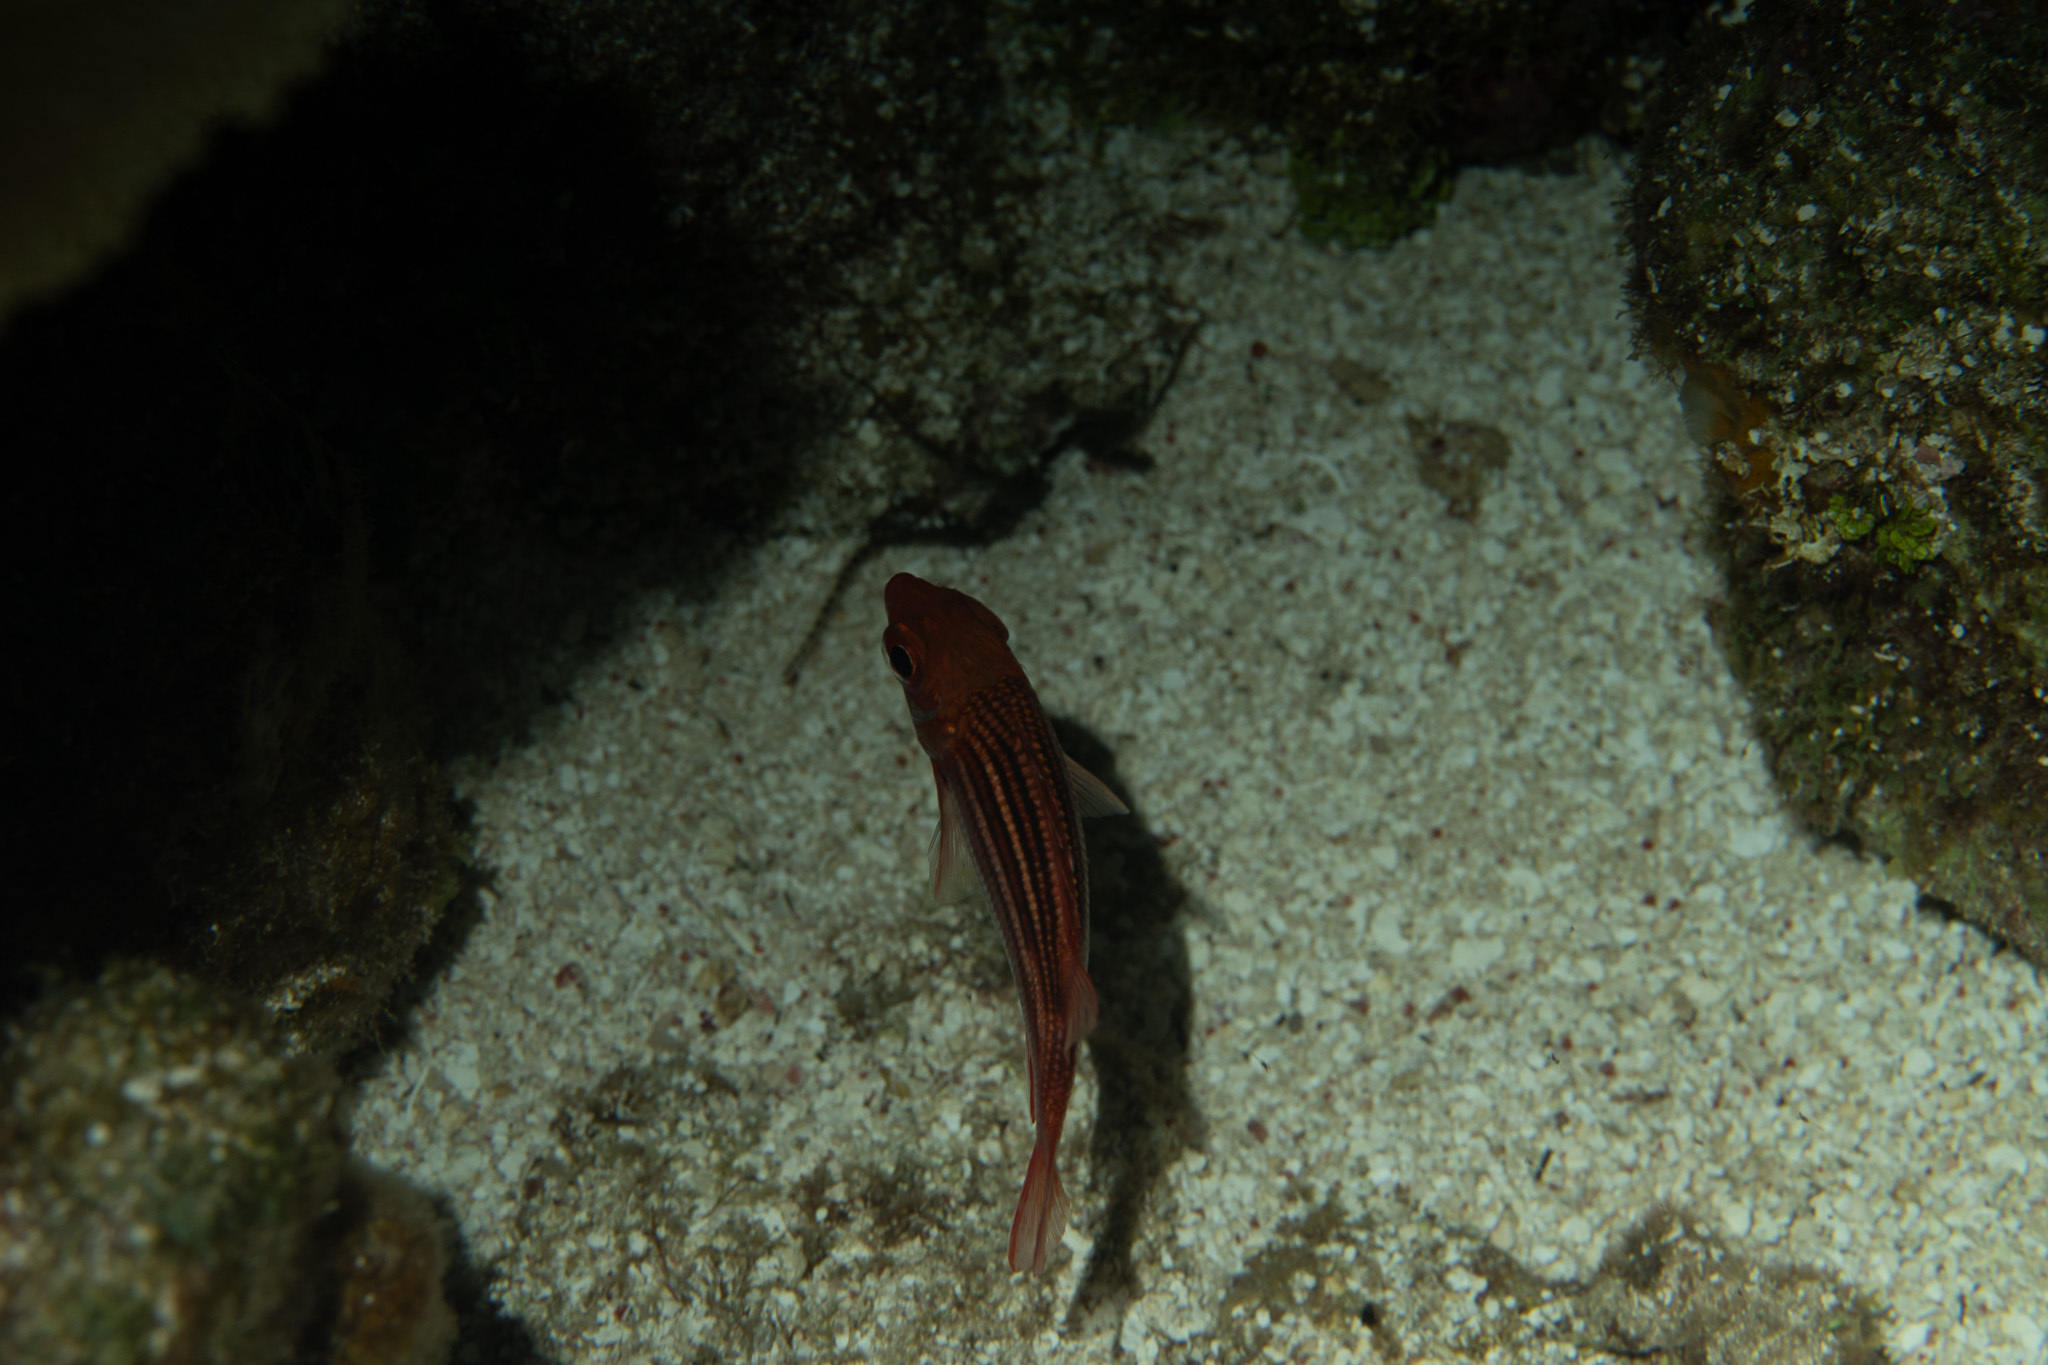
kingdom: Animalia
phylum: Chordata
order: Beryciformes
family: Holocentridae
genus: Neoniphon
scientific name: Neoniphon vexillarium
